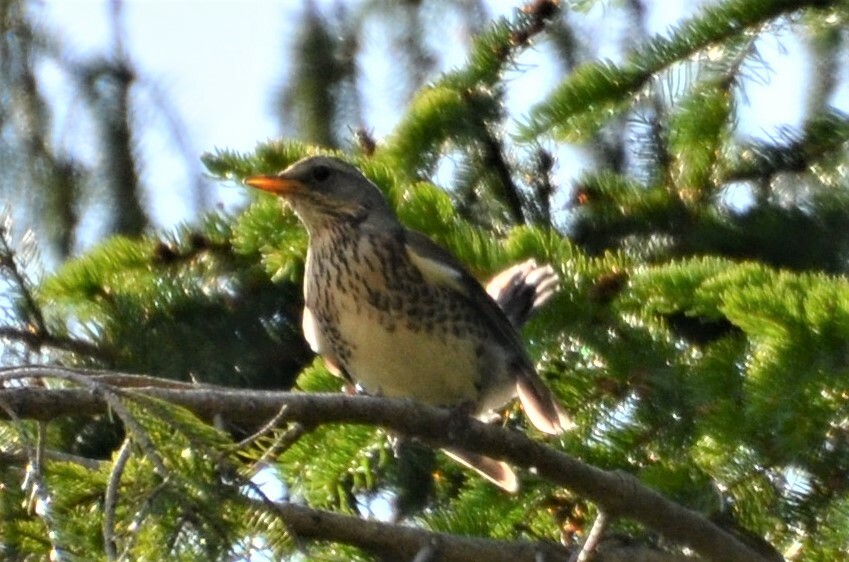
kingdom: Animalia
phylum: Chordata
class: Aves
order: Passeriformes
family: Turdidae
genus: Turdus
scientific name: Turdus pilaris
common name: Fieldfare
